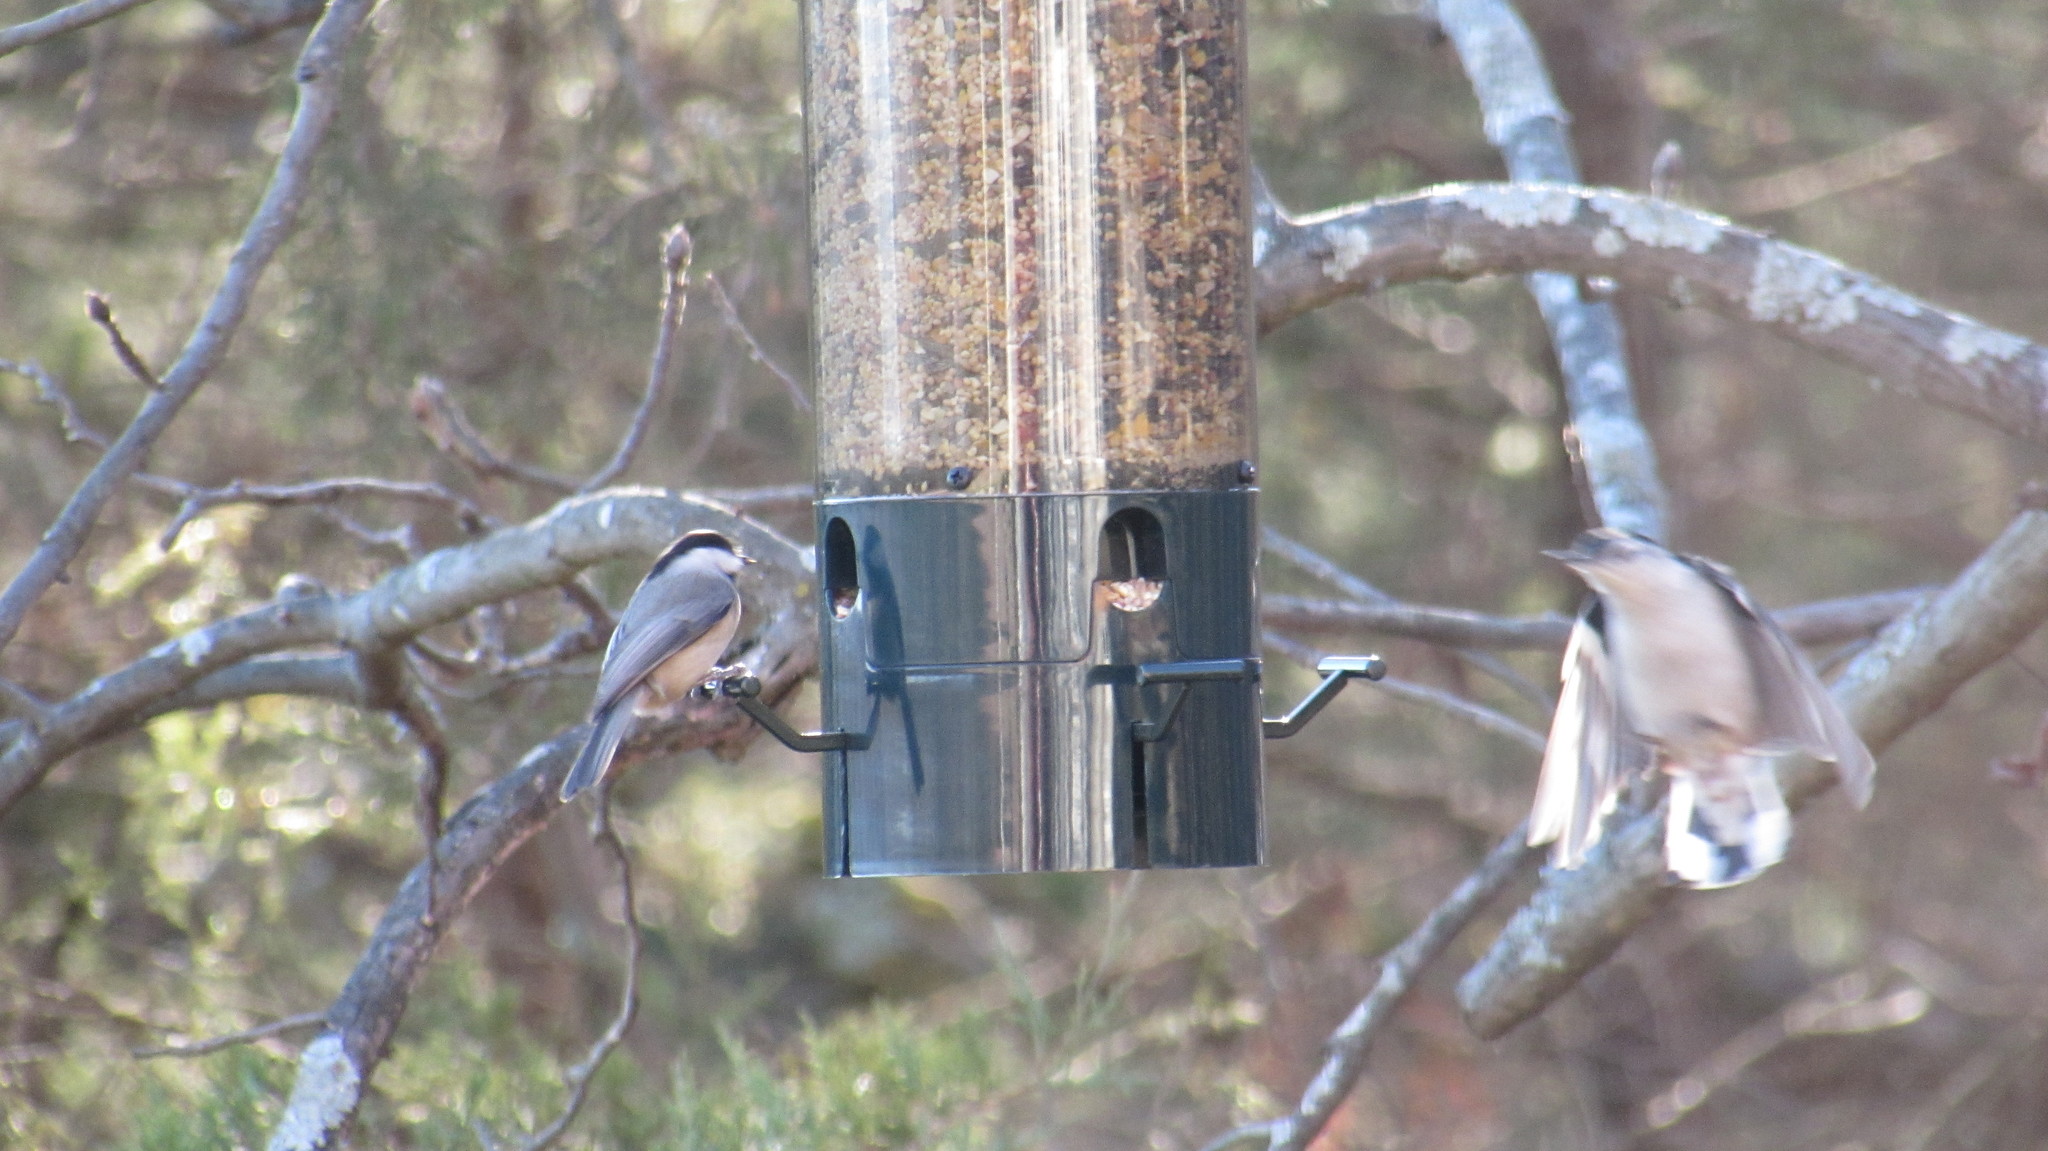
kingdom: Animalia
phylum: Chordata
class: Aves
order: Passeriformes
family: Paridae
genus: Poecile
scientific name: Poecile
